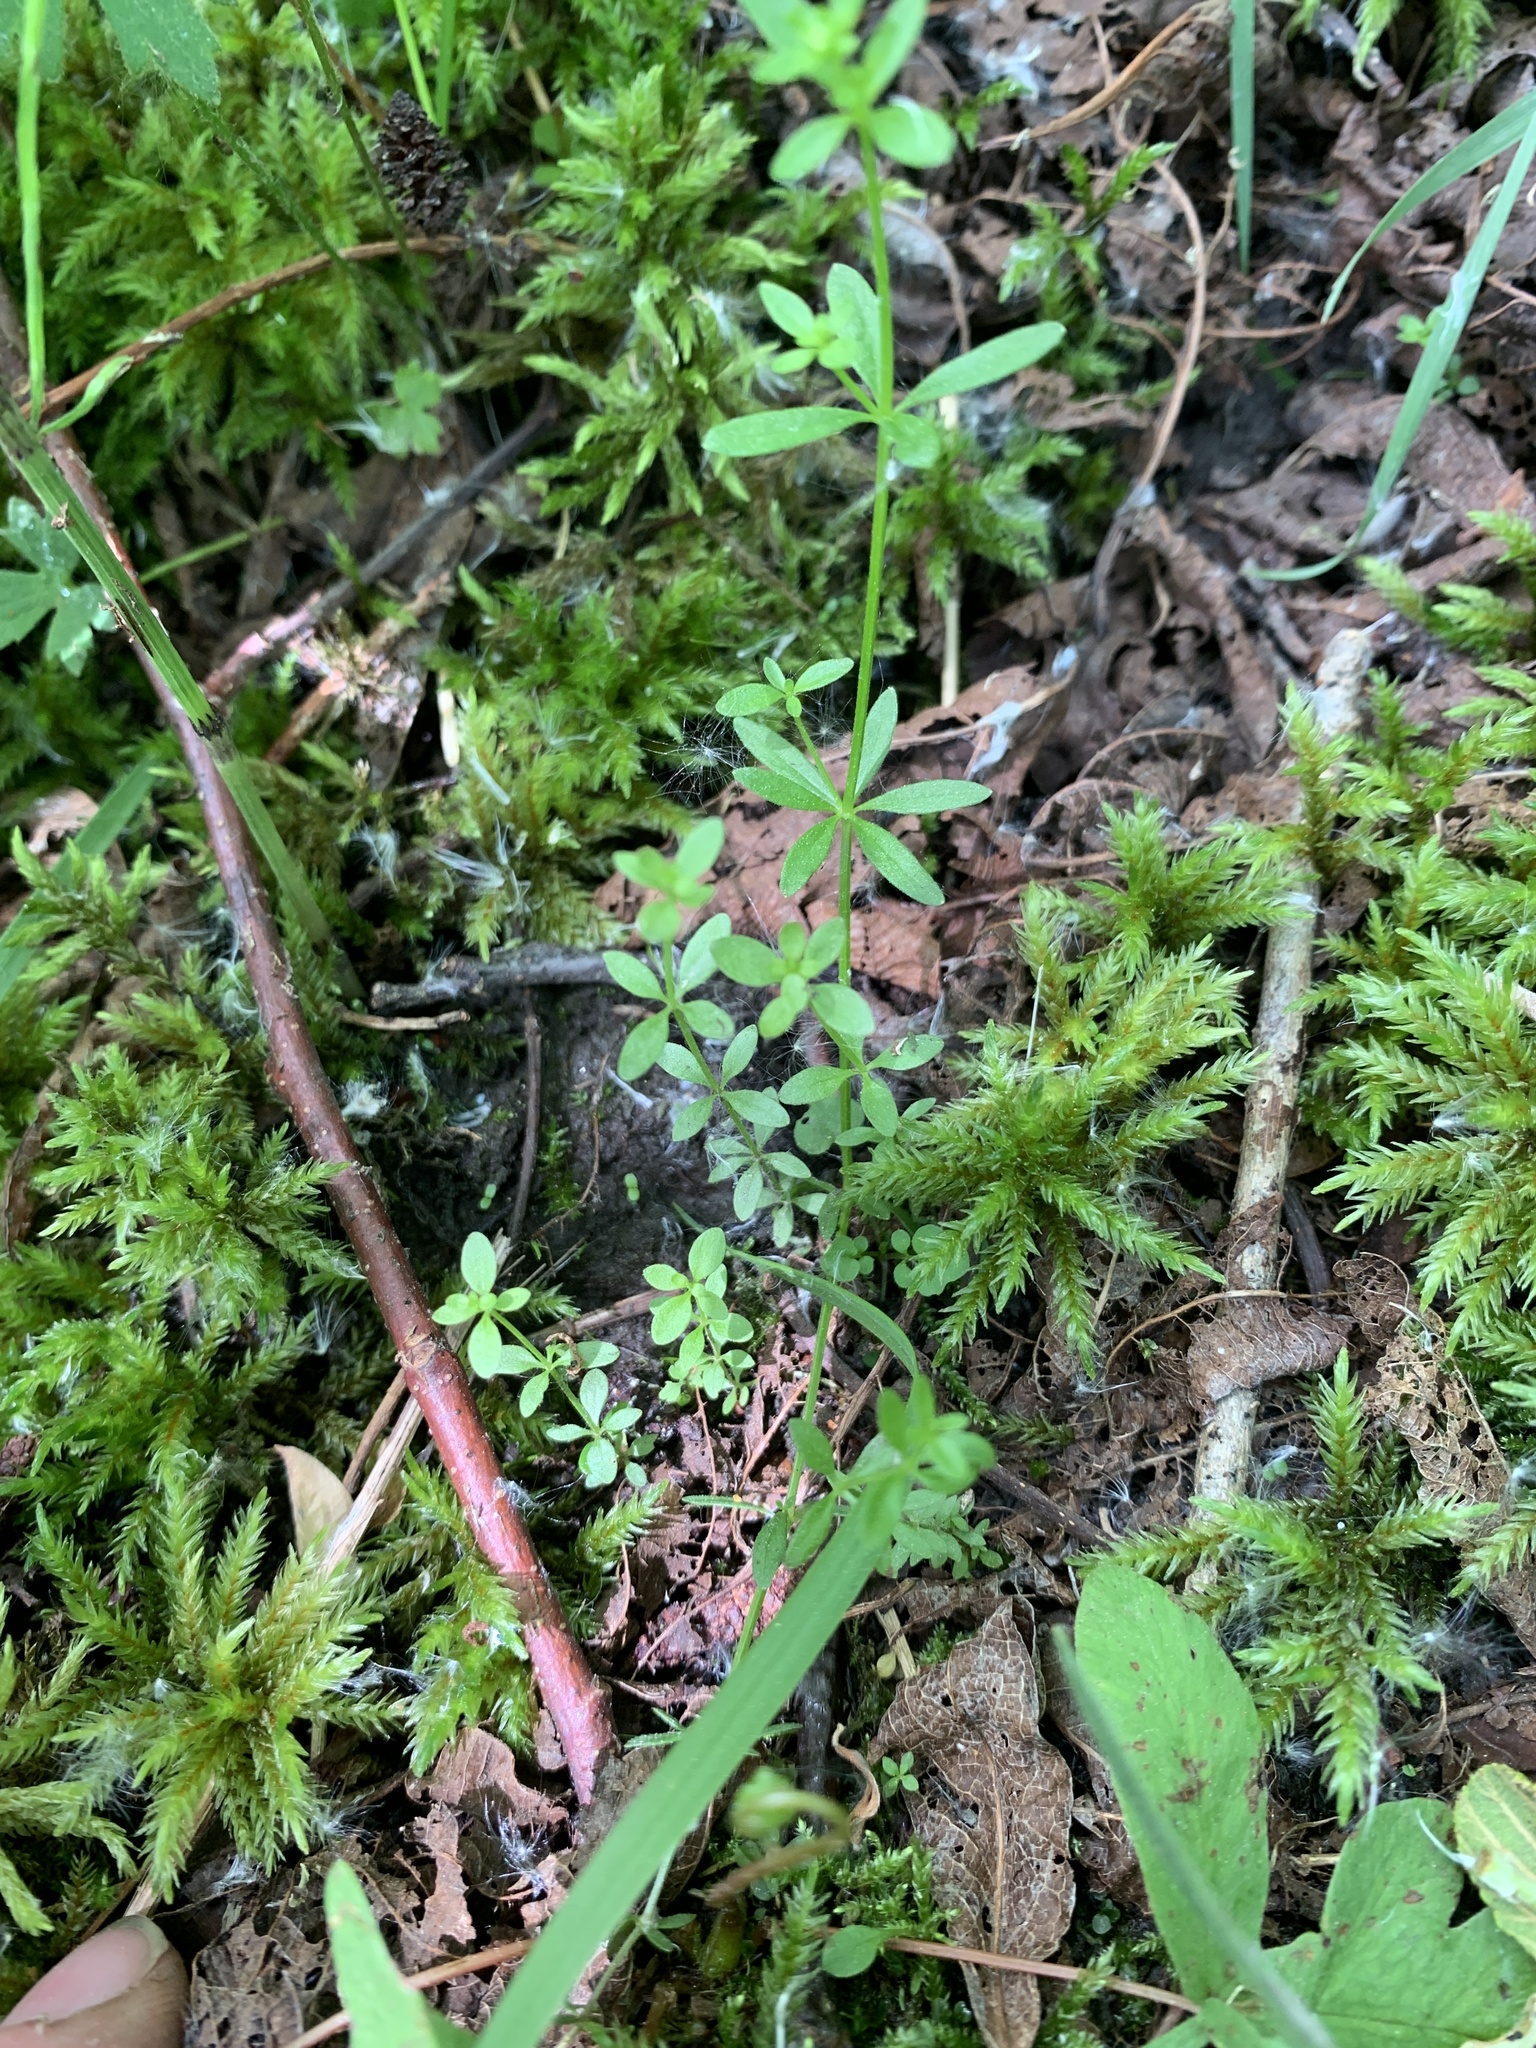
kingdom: Plantae
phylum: Tracheophyta
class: Magnoliopsida
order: Gentianales
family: Rubiaceae
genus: Galium
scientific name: Galium palustre
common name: Common marsh-bedstraw
